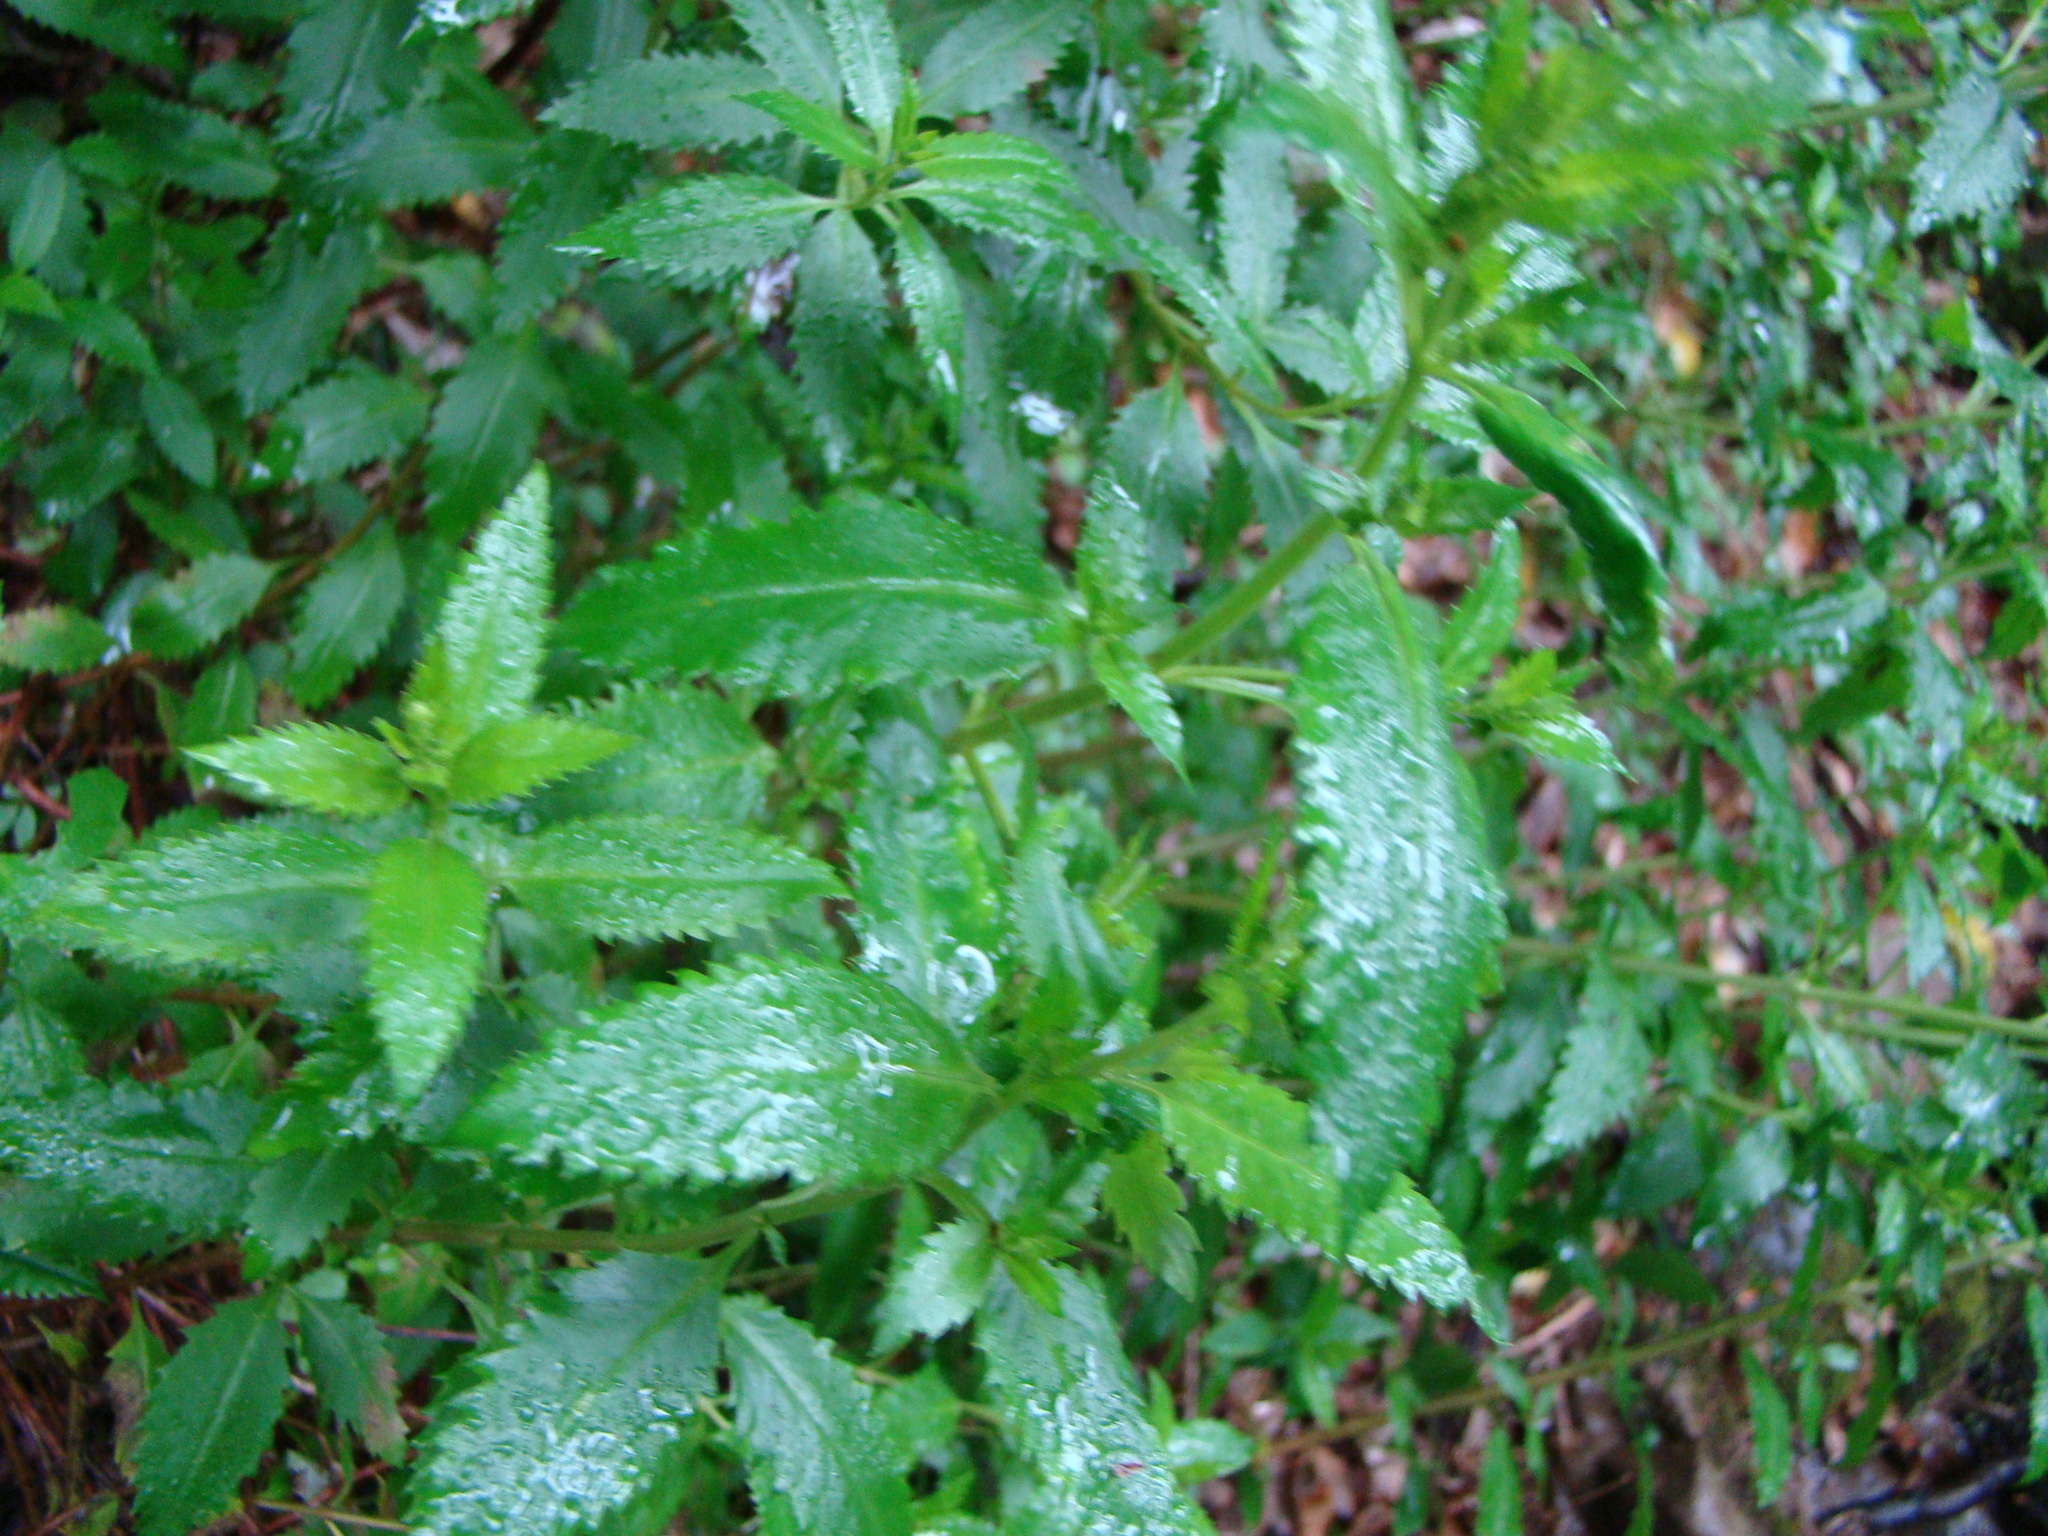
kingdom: Plantae
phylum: Tracheophyta
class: Magnoliopsida
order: Saxifragales
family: Haloragaceae
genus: Haloragis
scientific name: Haloragis erecta
